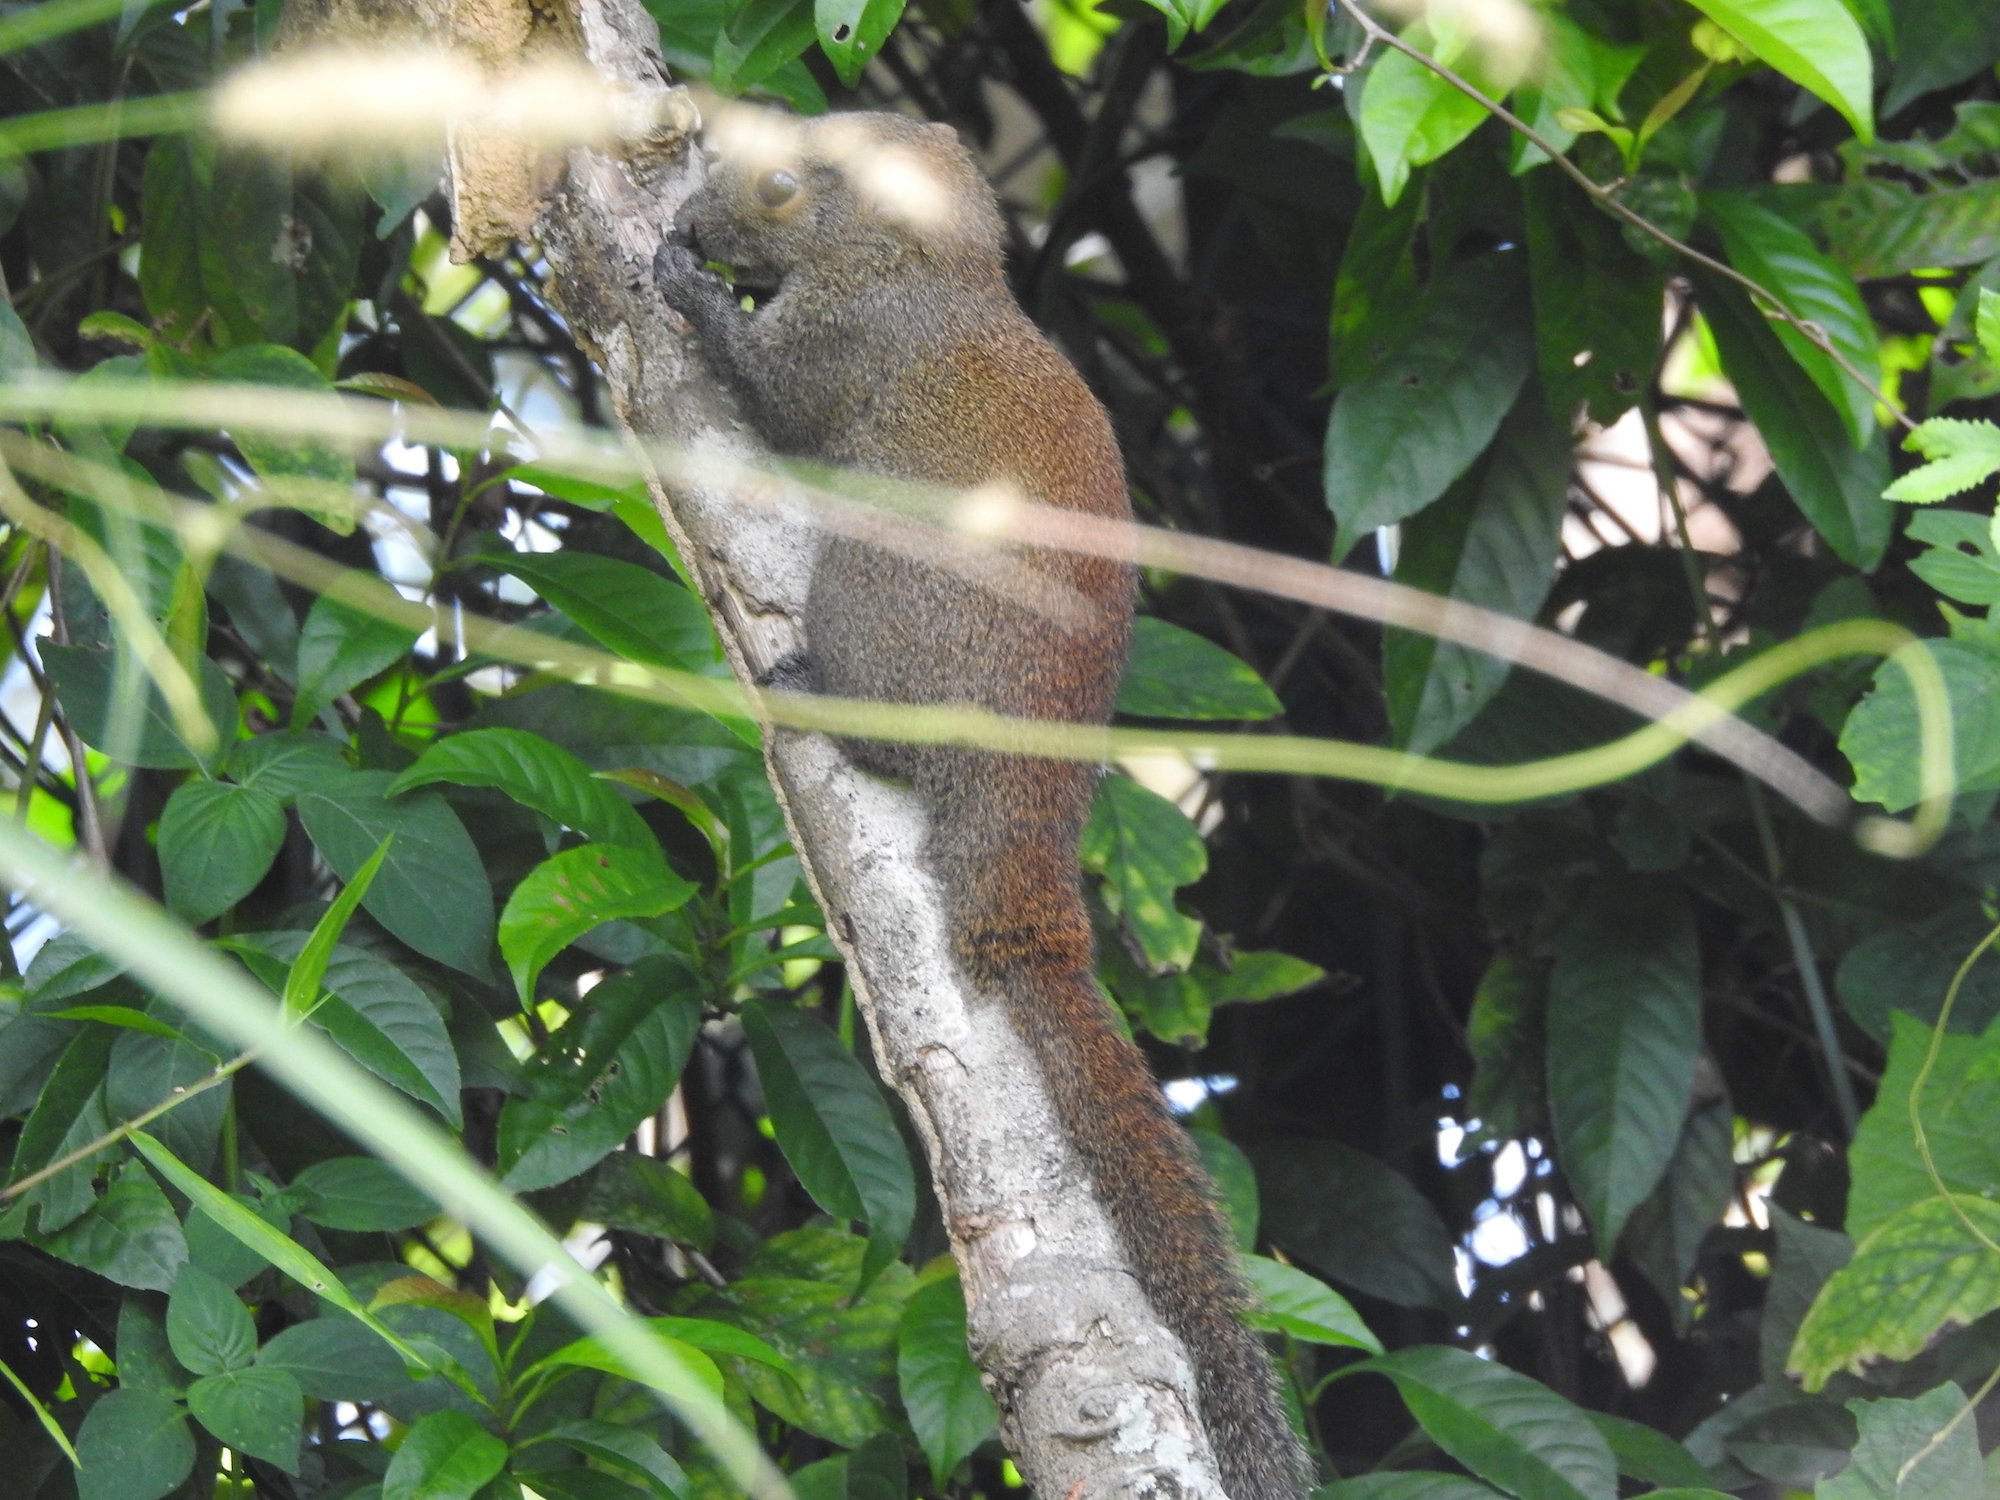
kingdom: Animalia
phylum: Chordata
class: Mammalia
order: Rodentia
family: Sciuridae
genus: Callosciurus
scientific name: Callosciurus caniceps
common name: Gray-bellied squirrel
